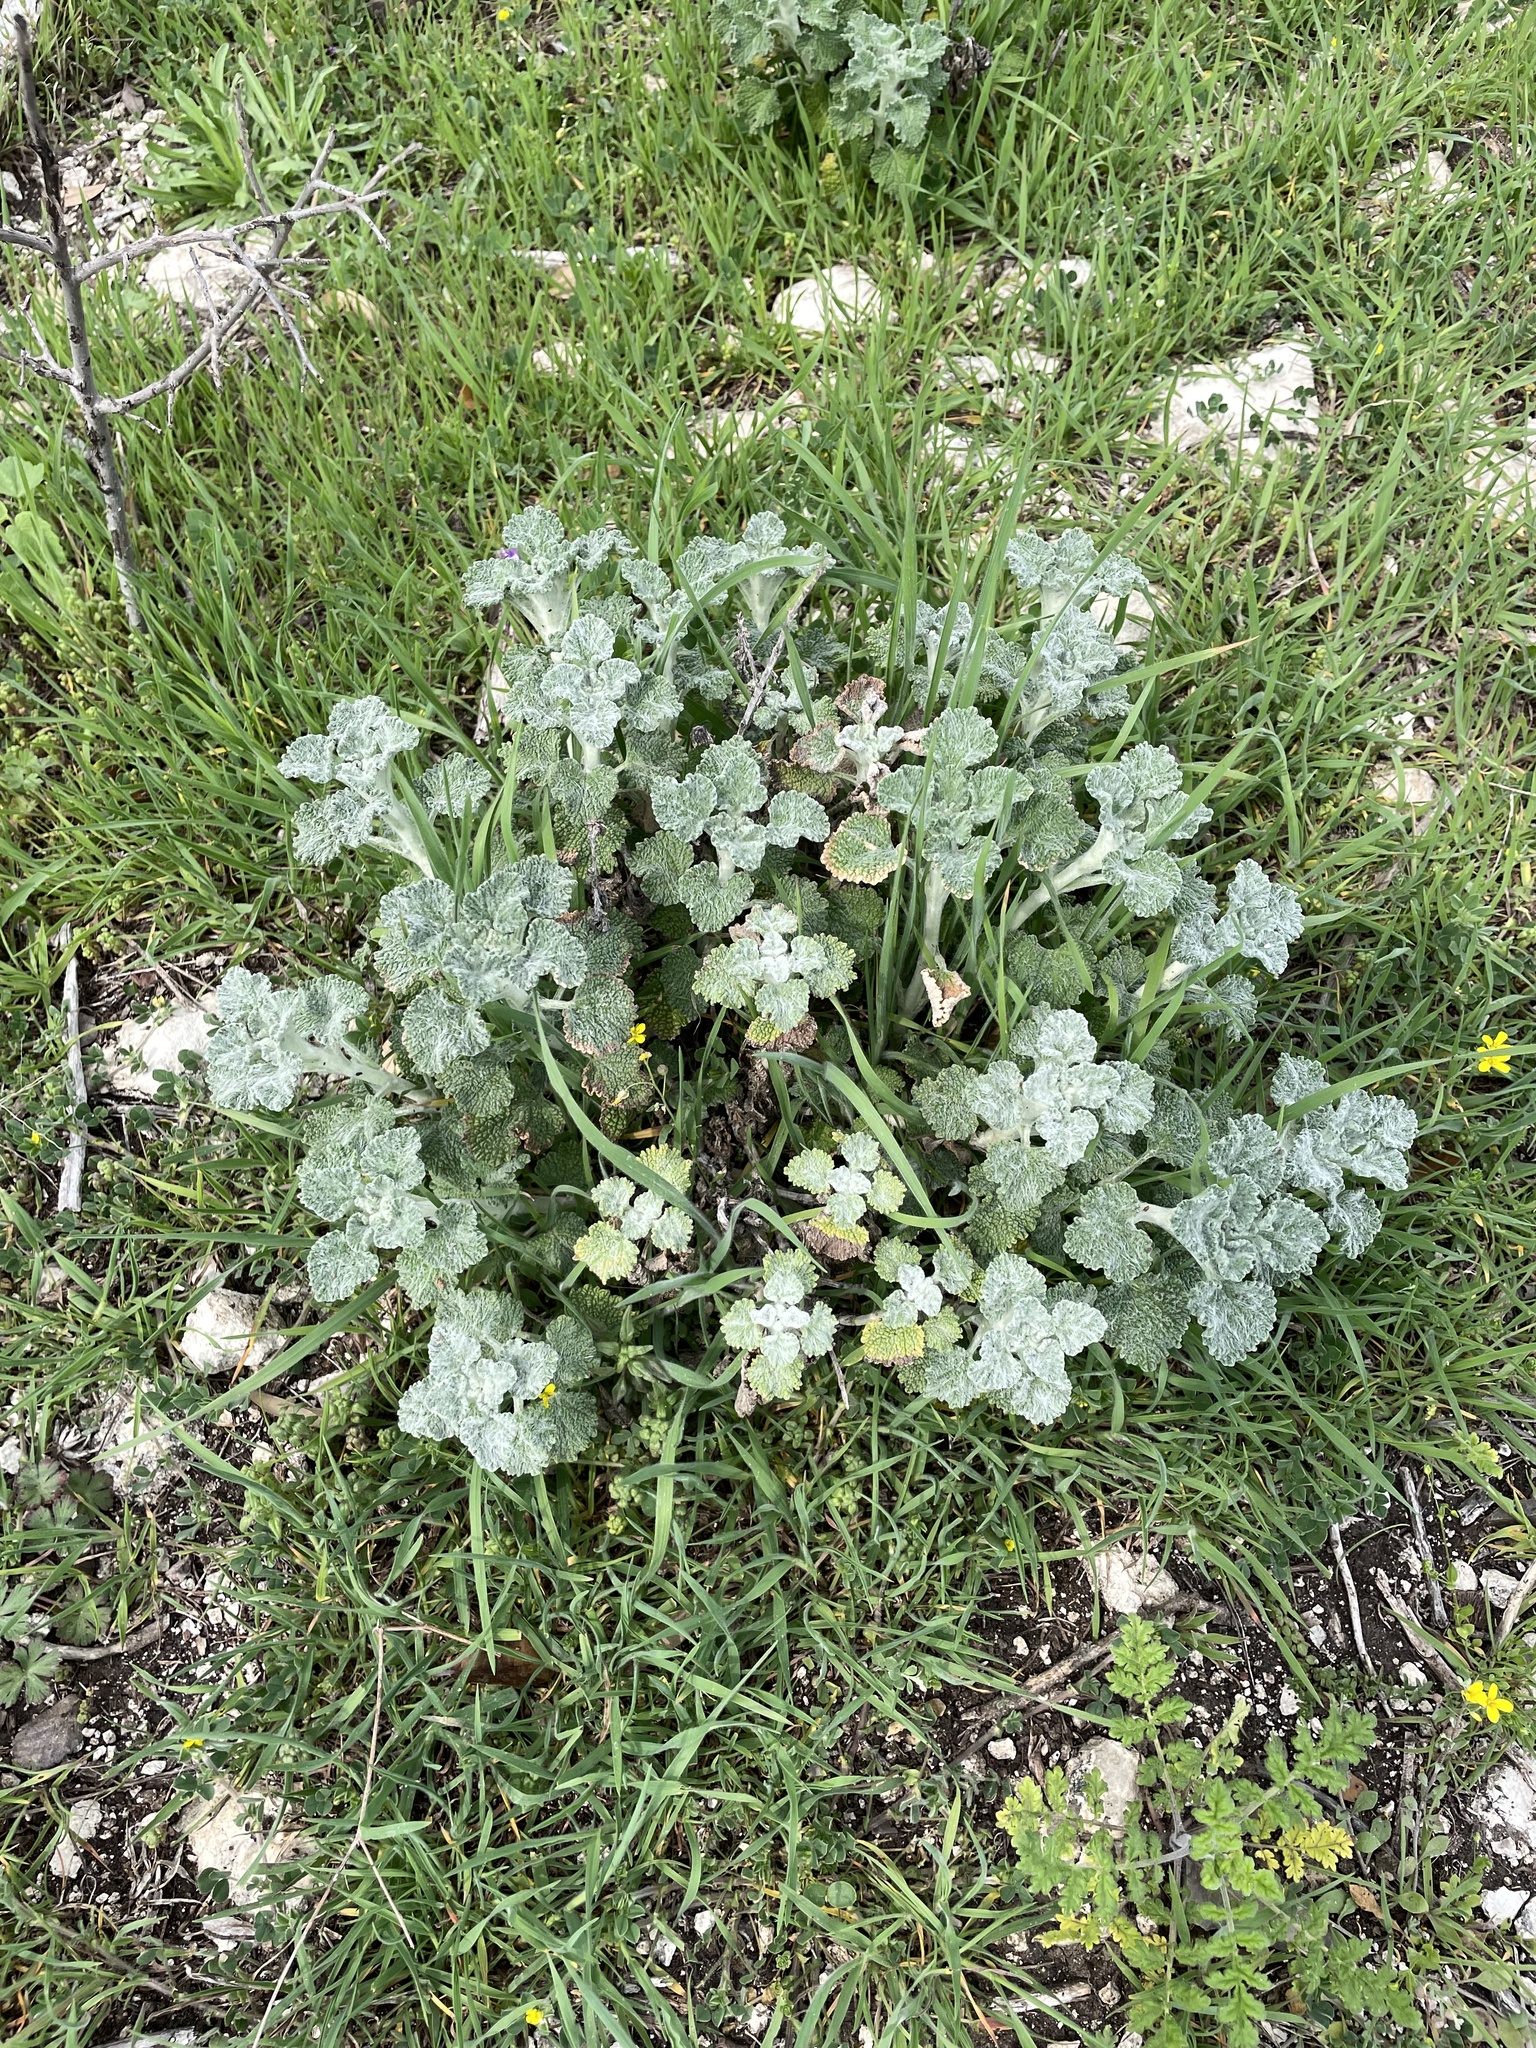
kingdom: Plantae
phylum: Tracheophyta
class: Magnoliopsida
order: Lamiales
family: Lamiaceae
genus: Marrubium
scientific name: Marrubium vulgare
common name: Horehound
